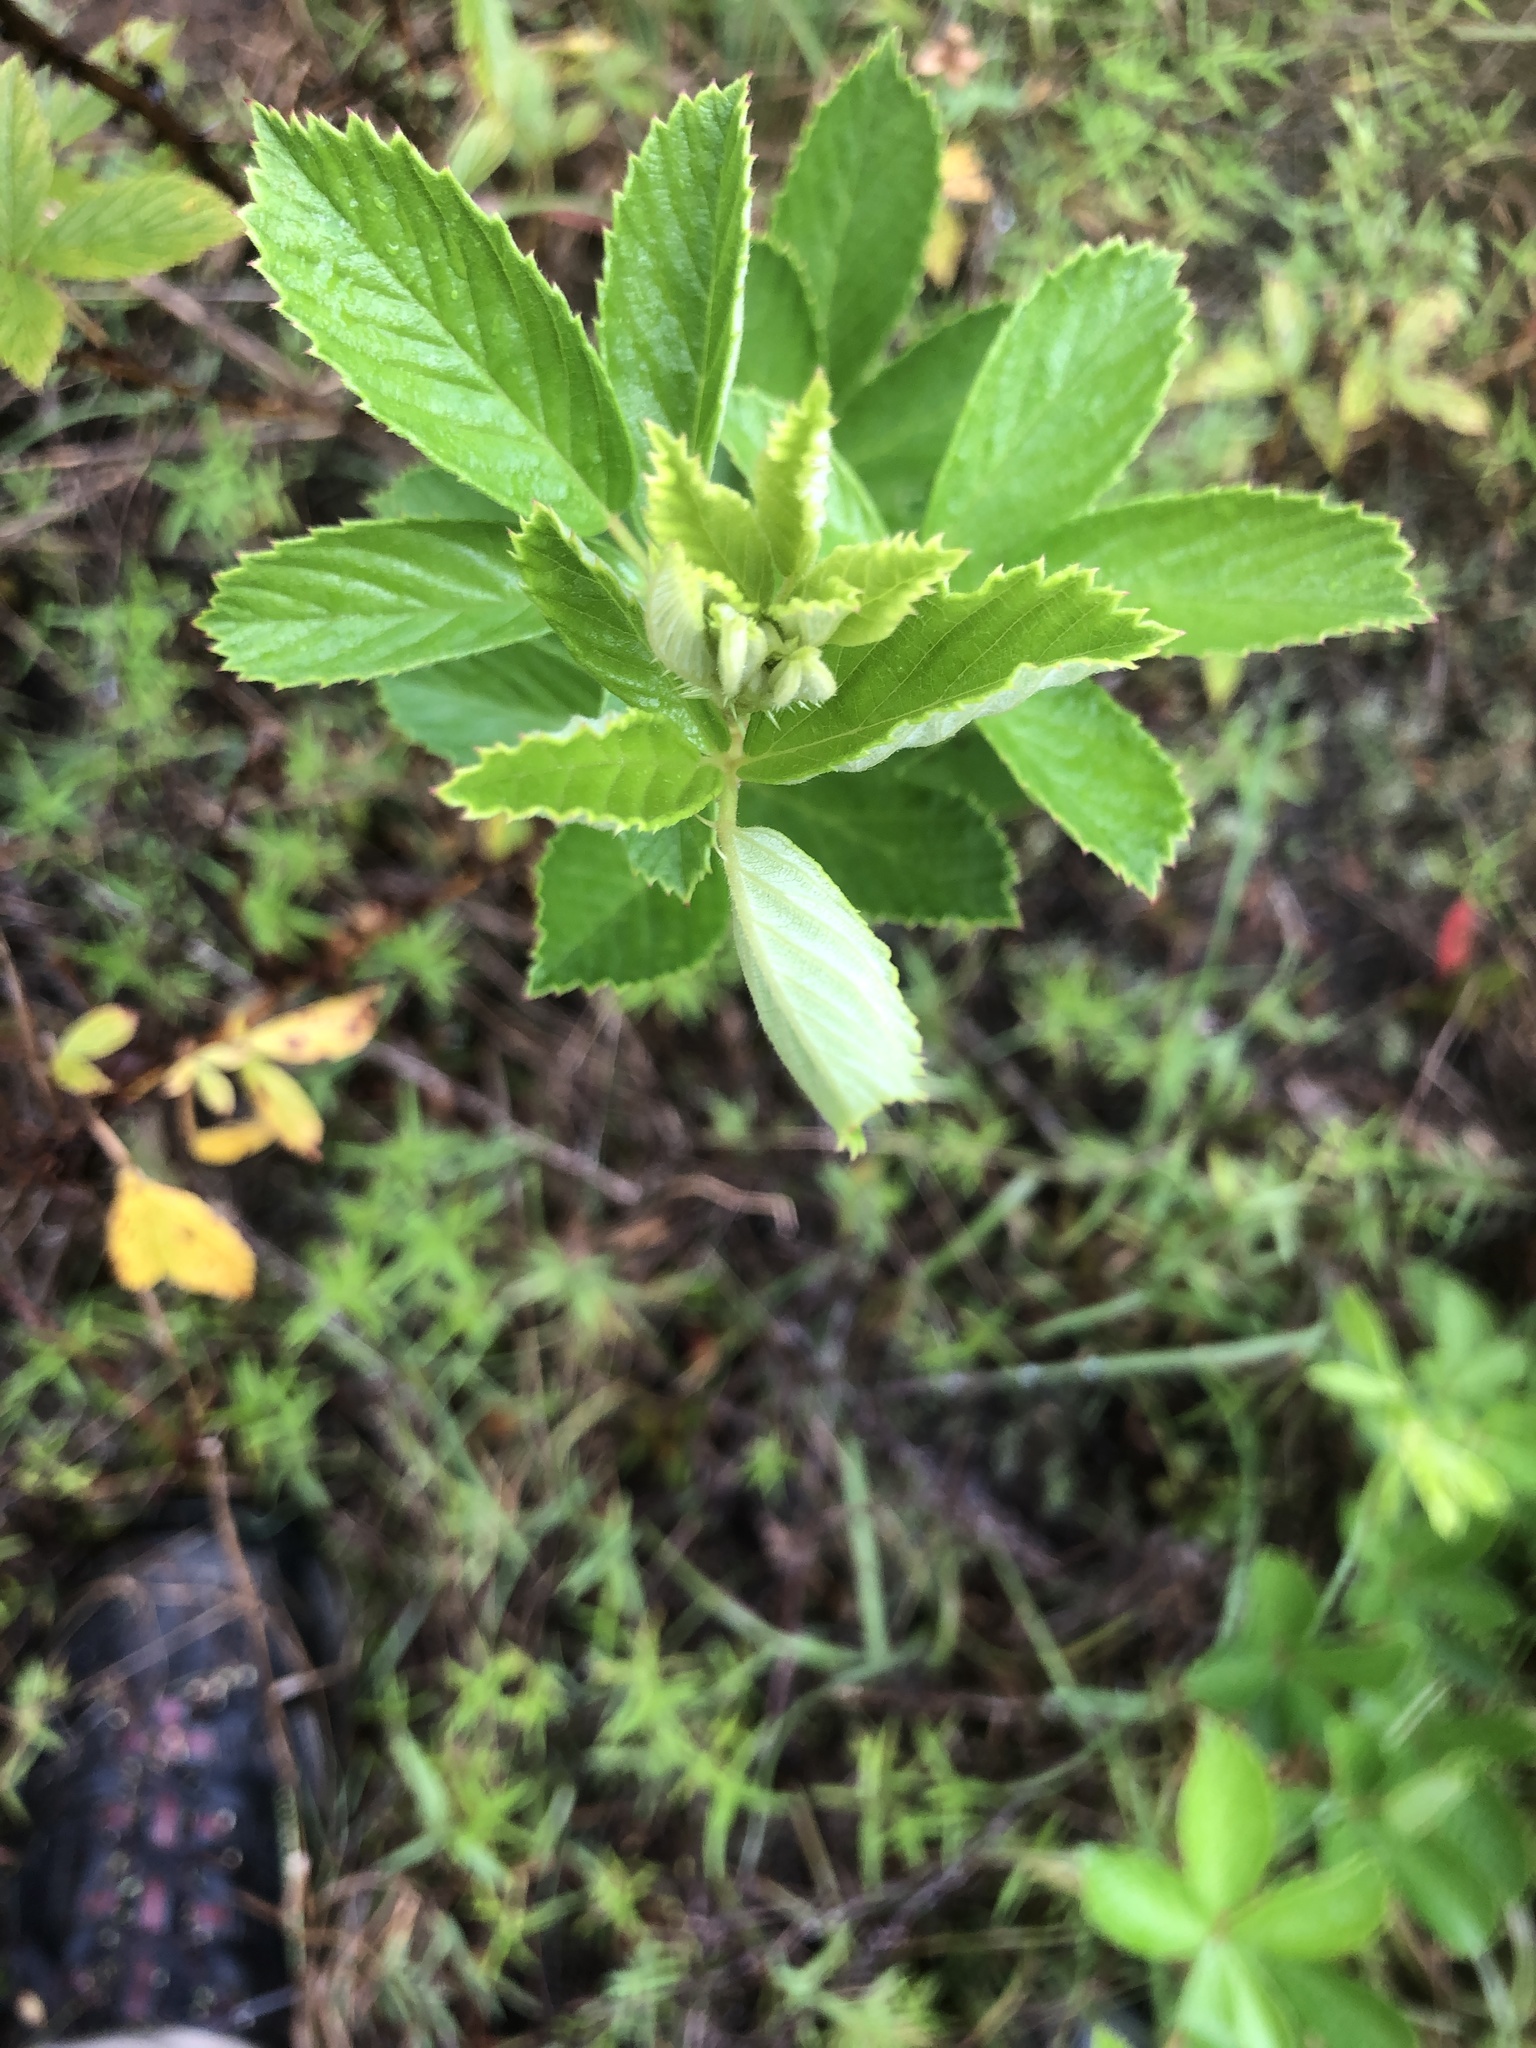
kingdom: Plantae
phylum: Tracheophyta
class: Magnoliopsida
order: Rosales
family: Rosaceae
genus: Rubus
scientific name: Rubus cuneifolius
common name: American bramble
